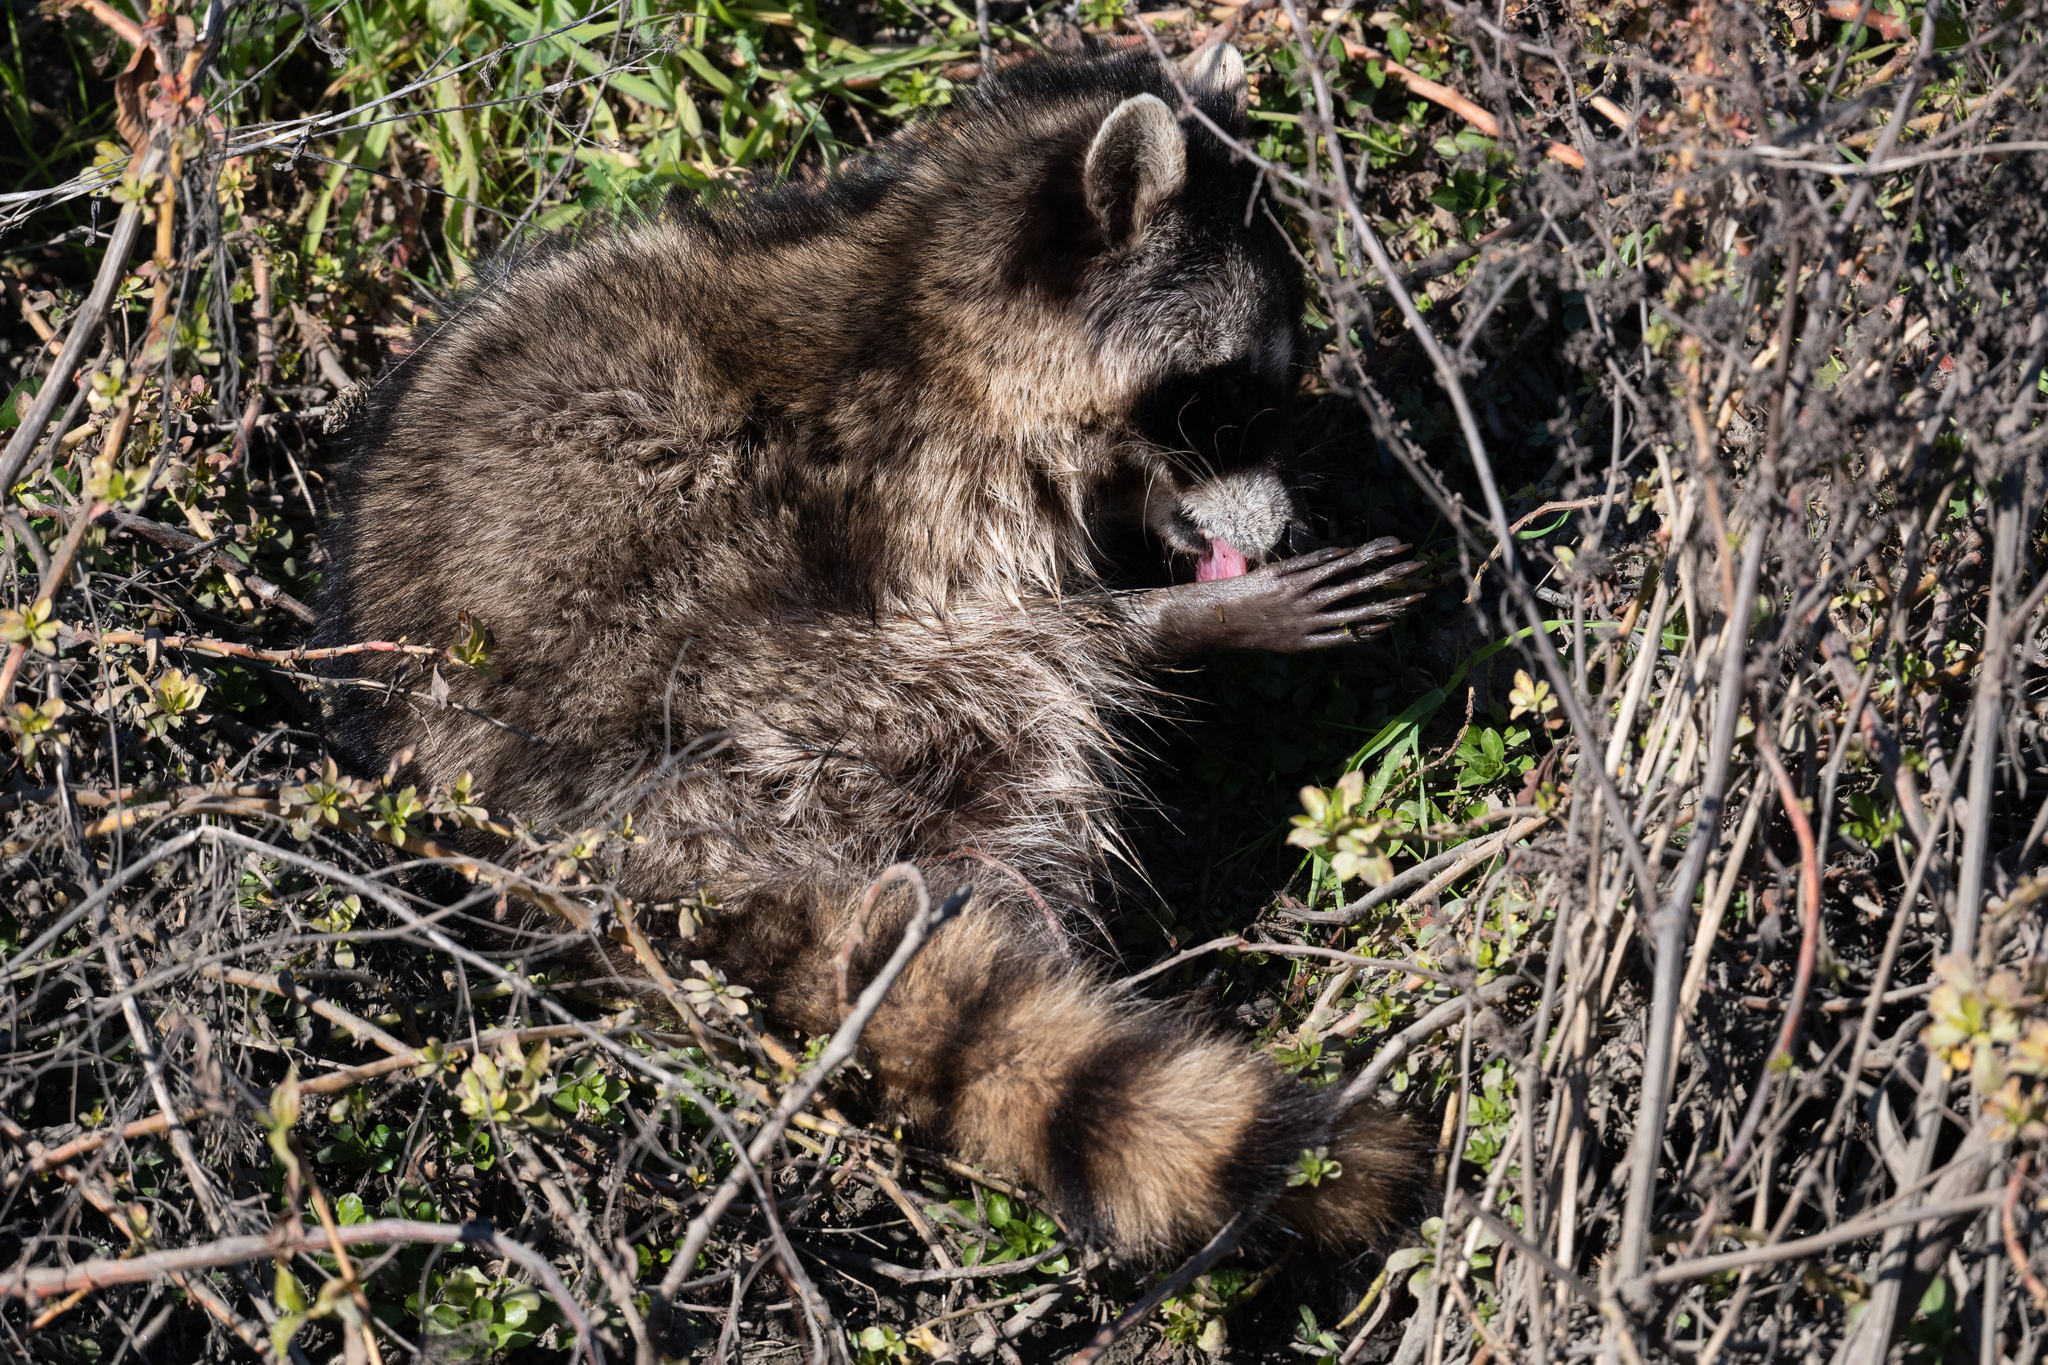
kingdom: Animalia
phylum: Chordata
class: Mammalia
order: Carnivora
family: Procyonidae
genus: Procyon
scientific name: Procyon lotor
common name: Raccoon
